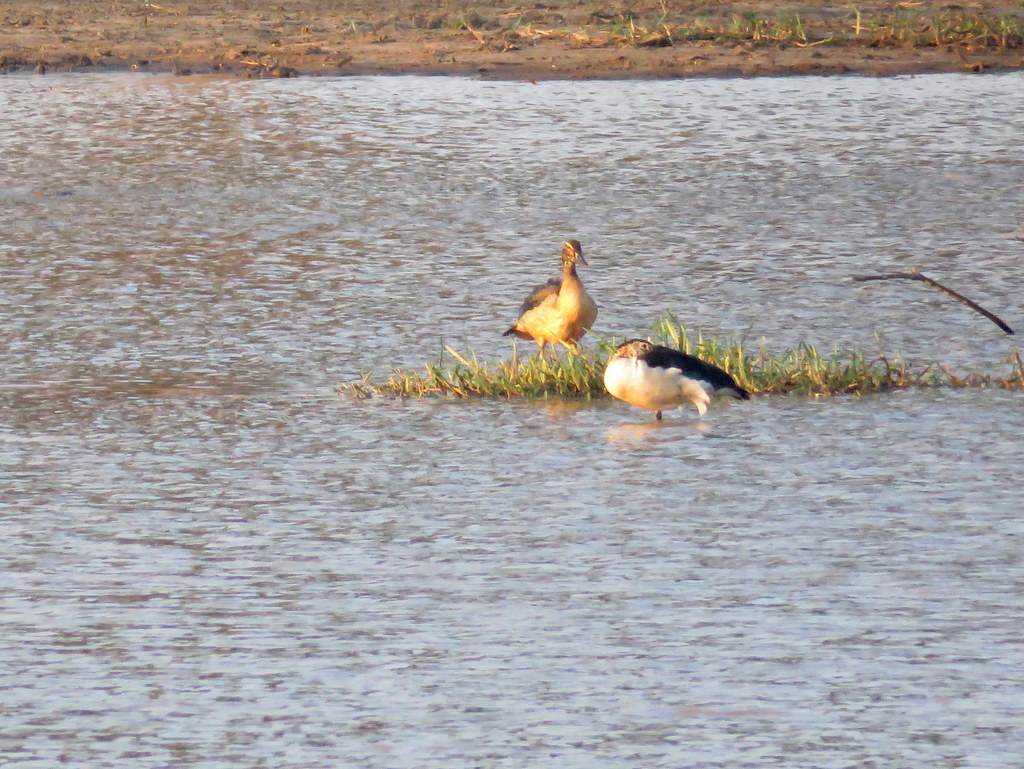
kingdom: Animalia
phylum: Chordata
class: Aves
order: Anseriformes
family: Anatidae
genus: Sarkidiornis
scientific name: Sarkidiornis melanotos
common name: Comb duck
